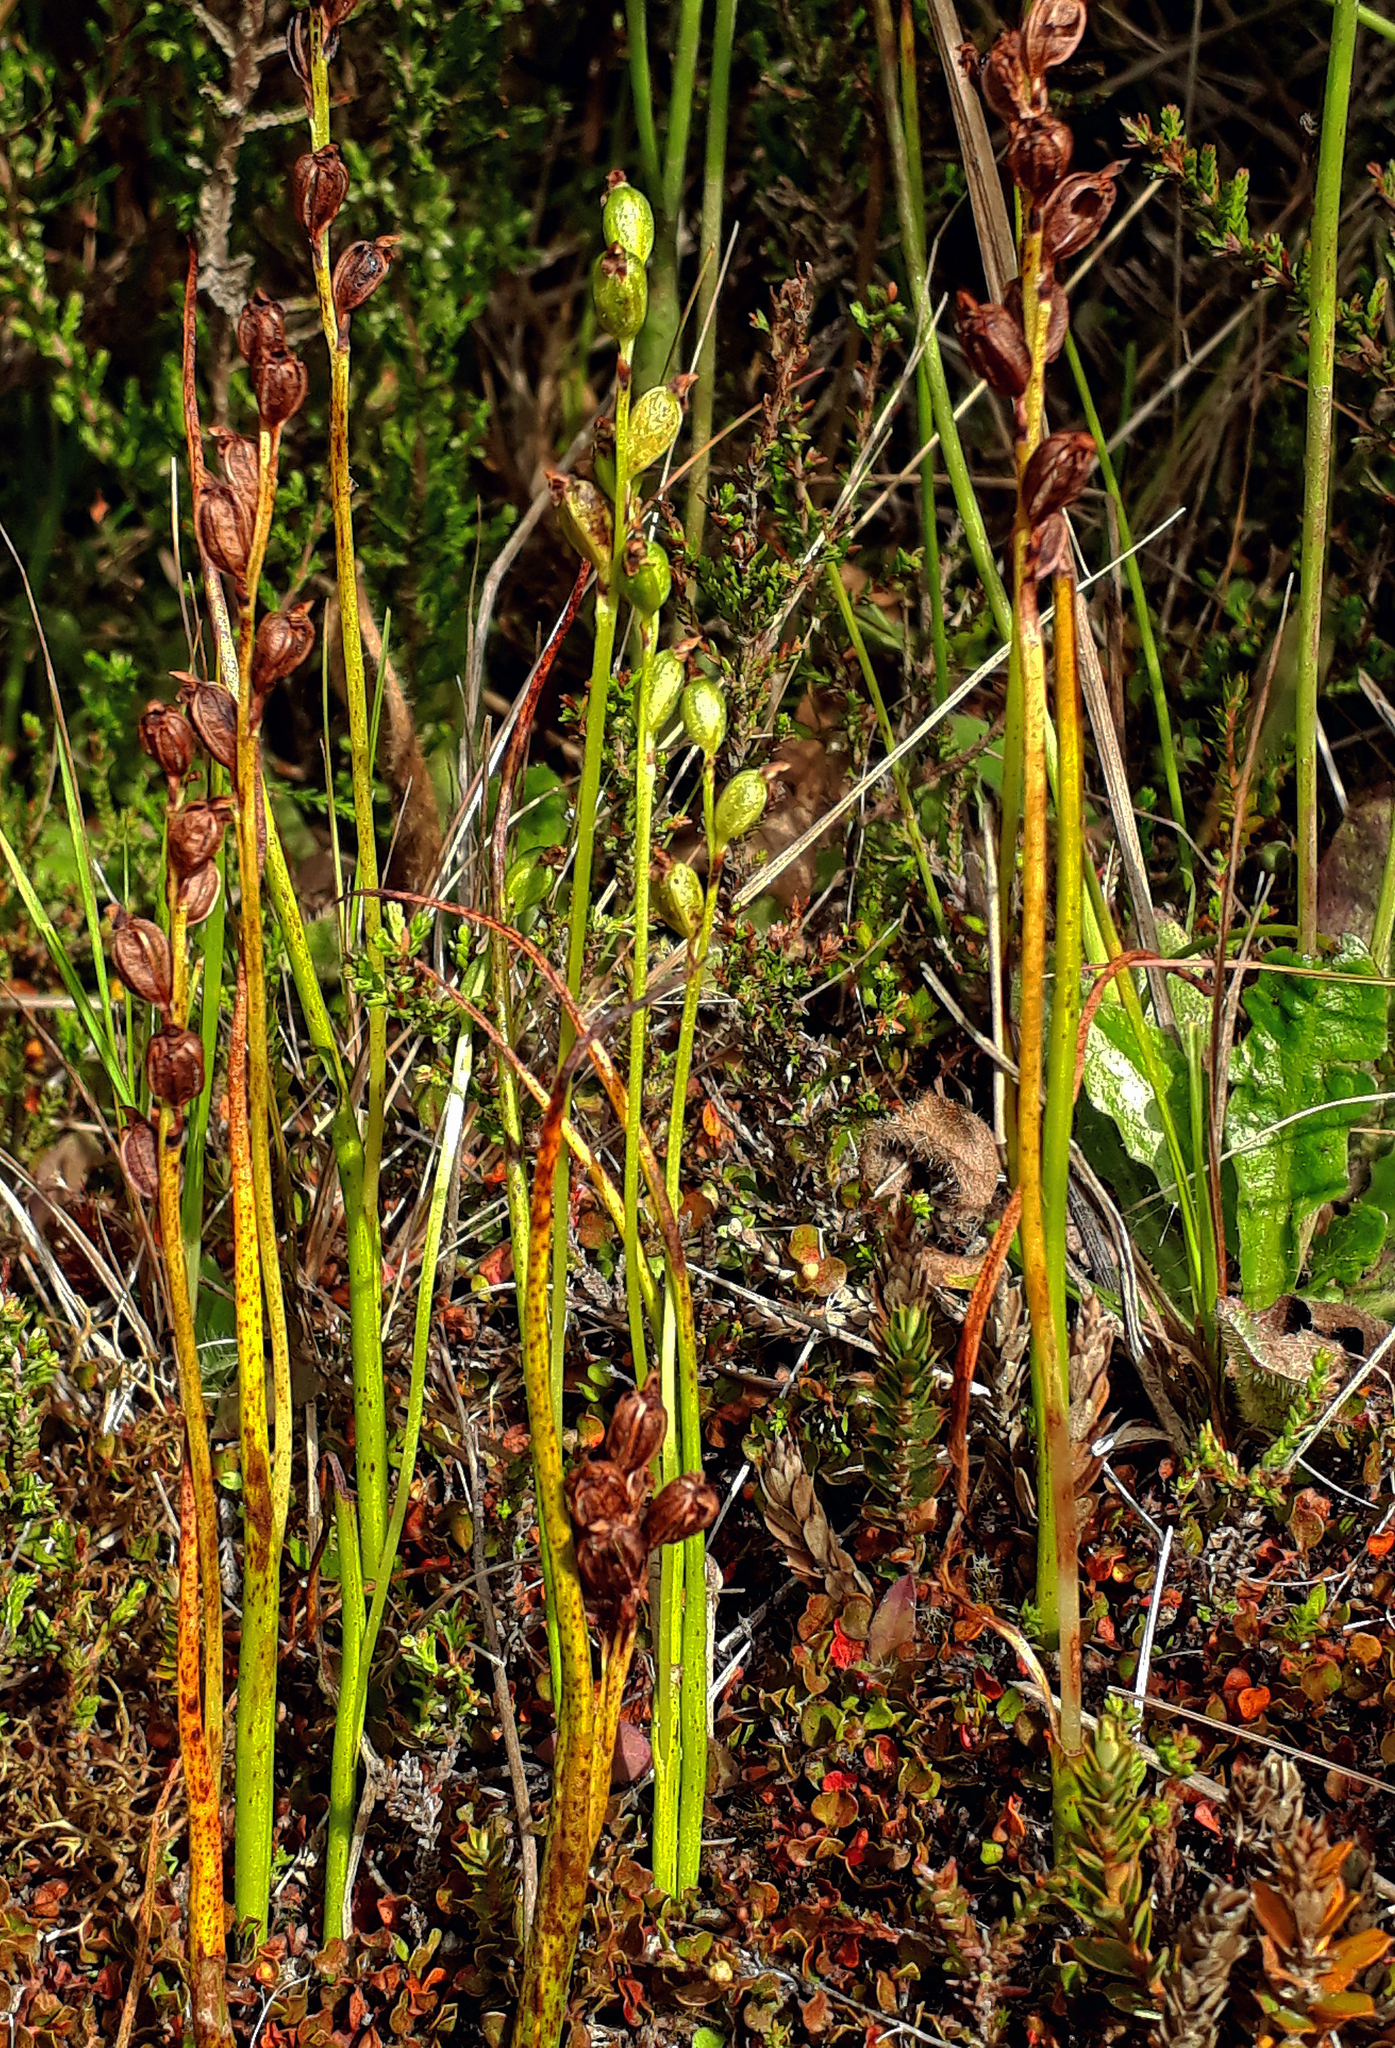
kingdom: Plantae
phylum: Tracheophyta
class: Liliopsida
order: Asparagales
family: Orchidaceae
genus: Prasophyllum
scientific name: Prasophyllum colensoi
